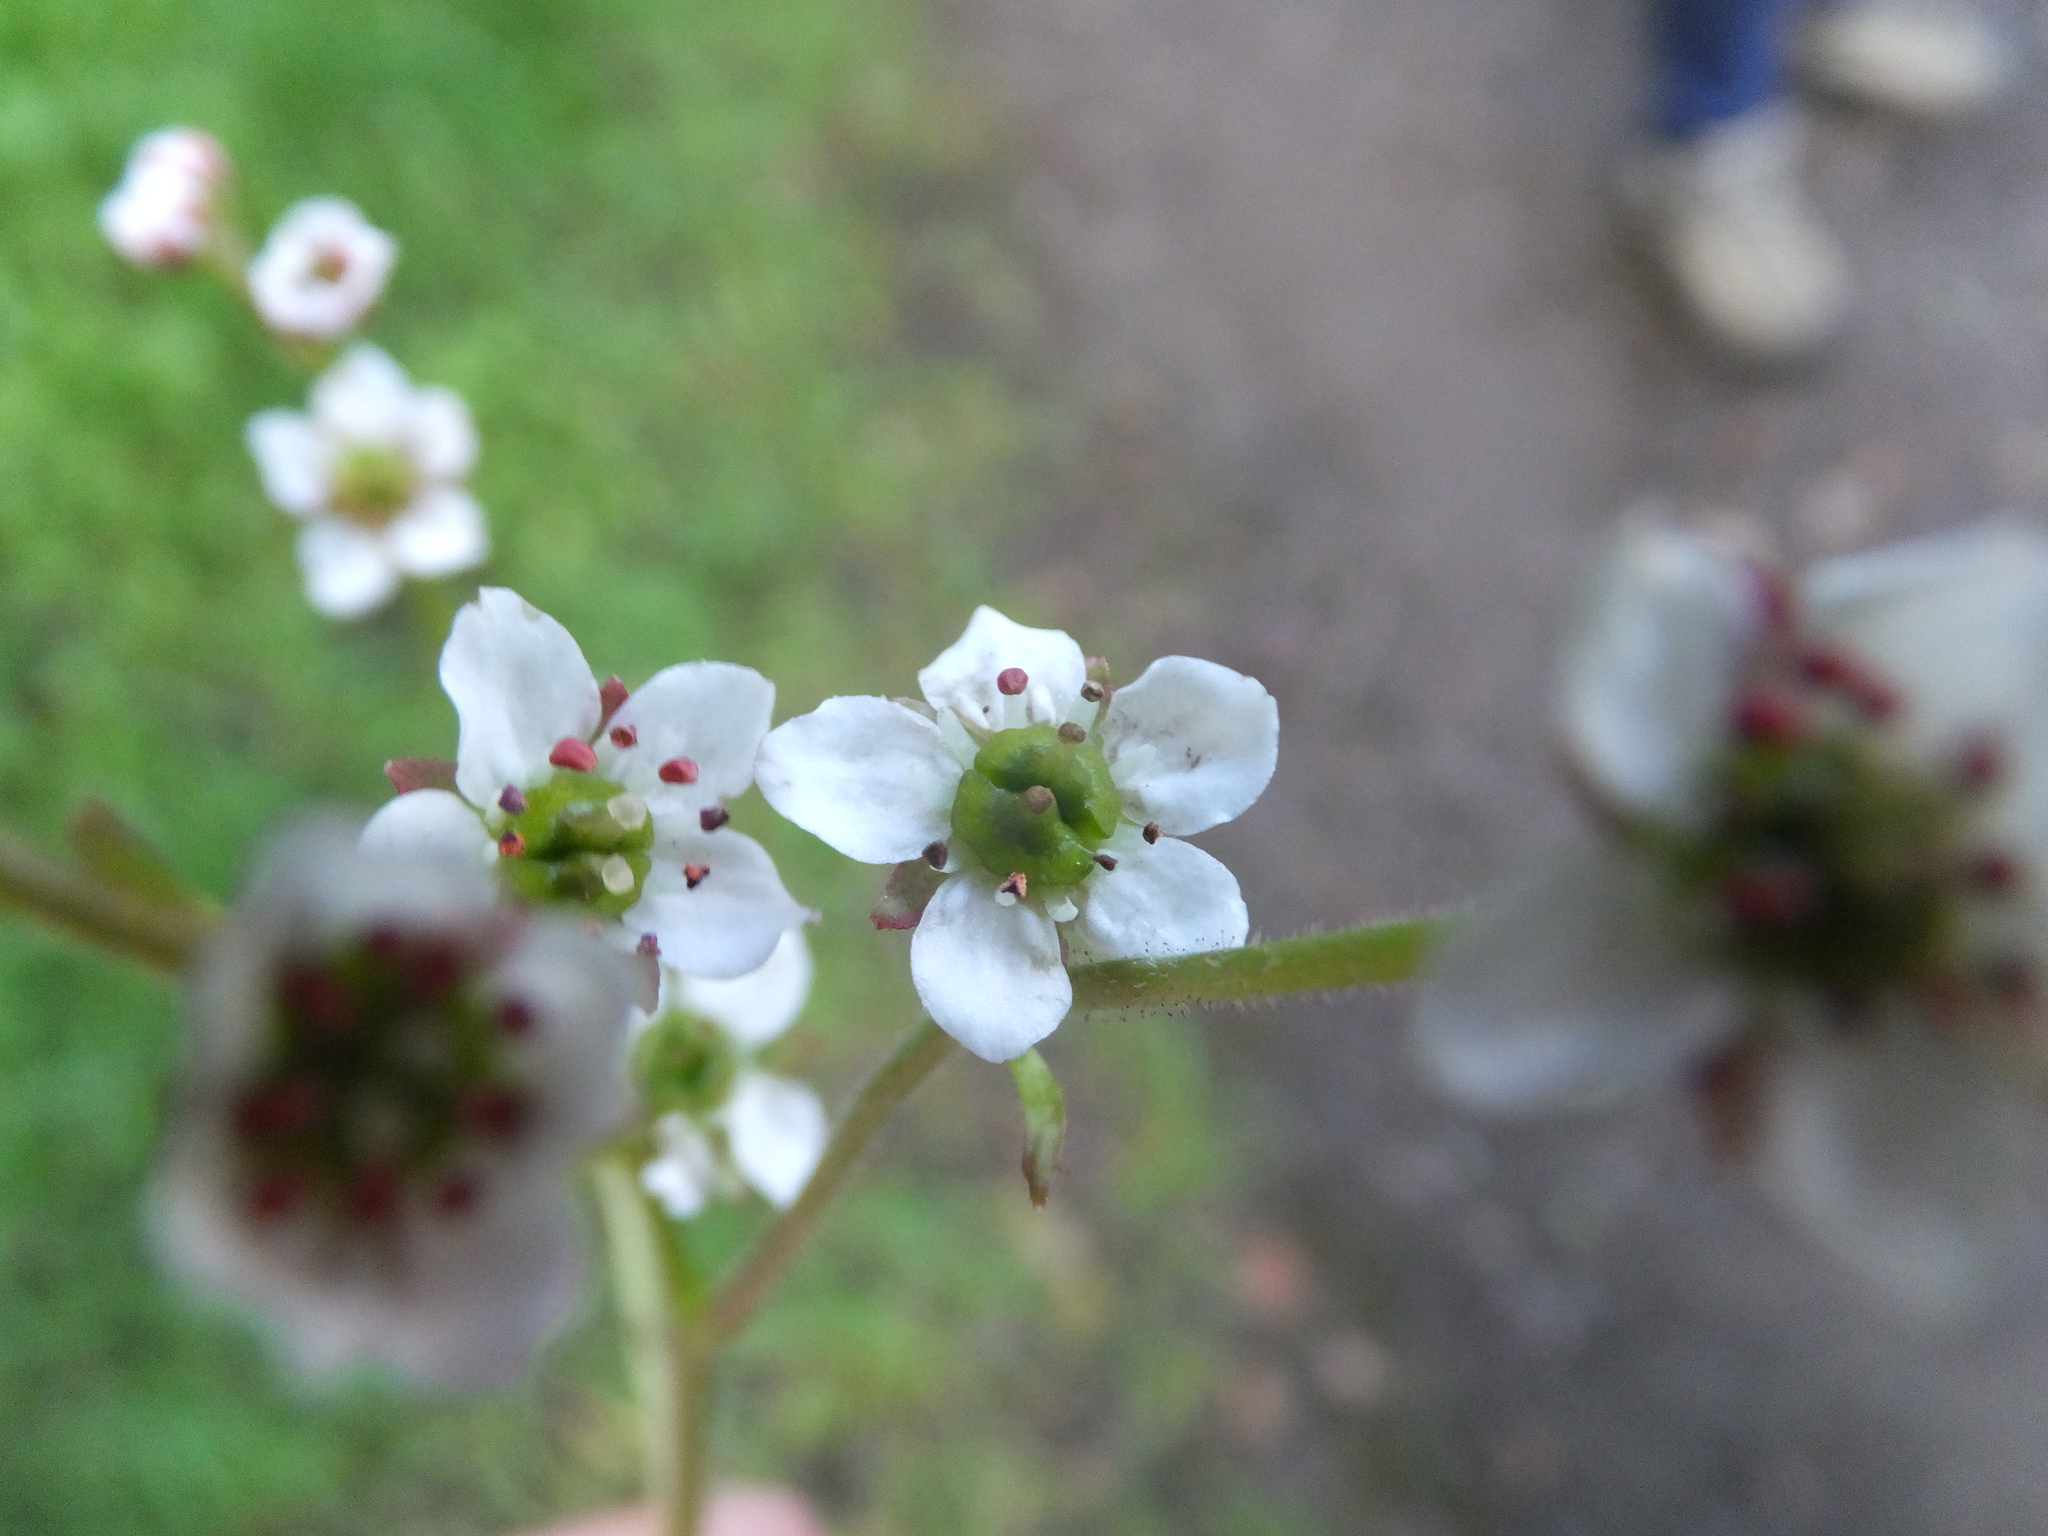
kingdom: Plantae
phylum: Tracheophyta
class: Magnoliopsida
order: Saxifragales
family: Saxifragaceae
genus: Micranthes
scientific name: Micranthes californica
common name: California saxifrage
